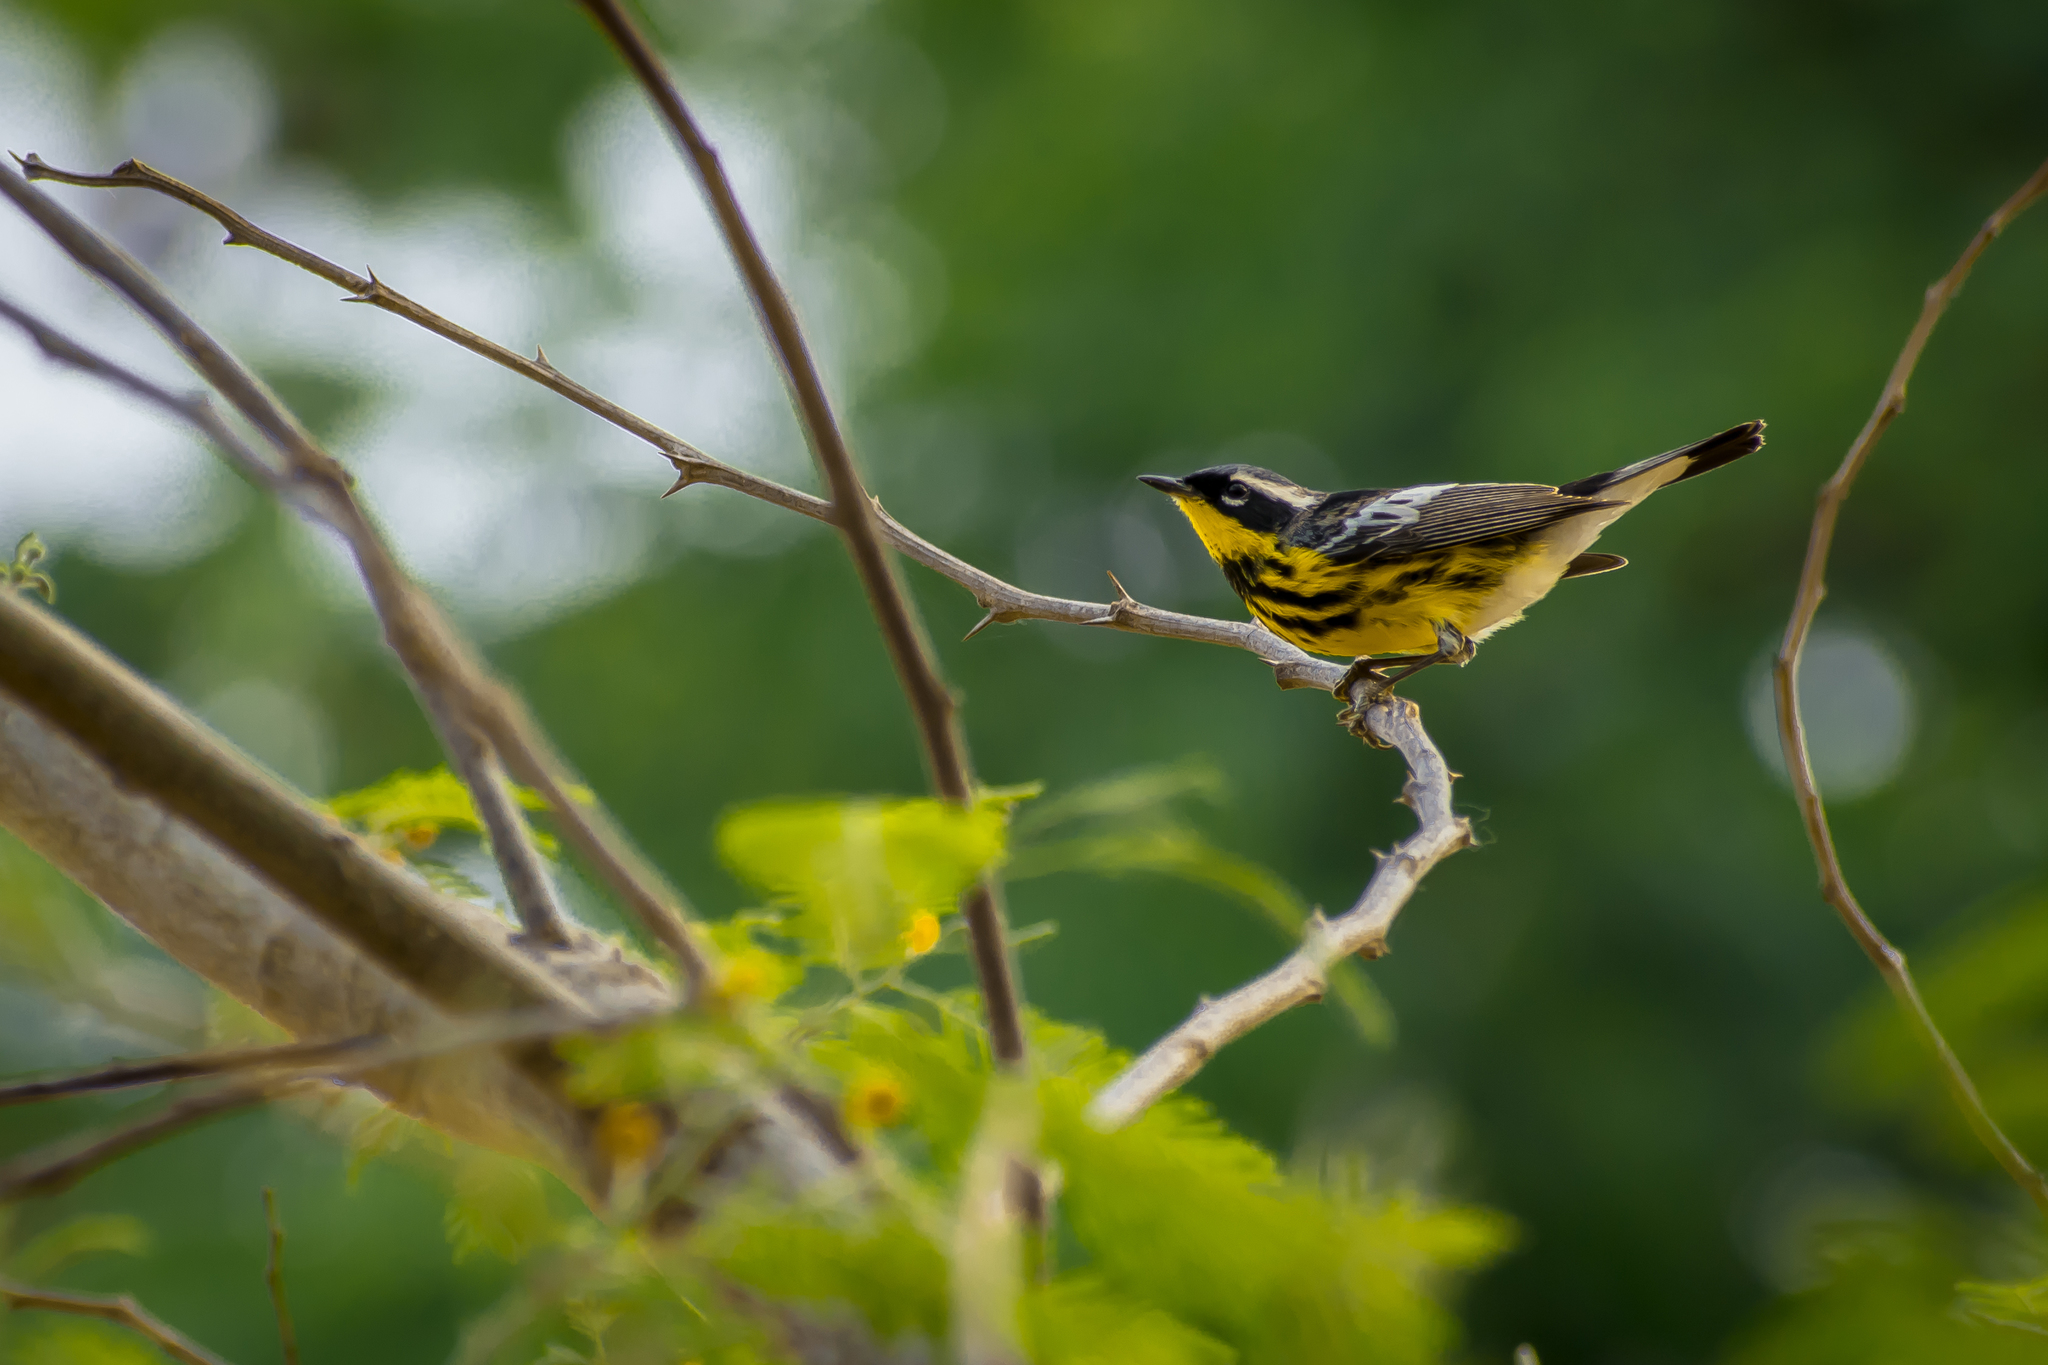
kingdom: Animalia
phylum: Chordata
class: Aves
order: Passeriformes
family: Parulidae
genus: Setophaga
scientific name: Setophaga magnolia
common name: Magnolia warbler
